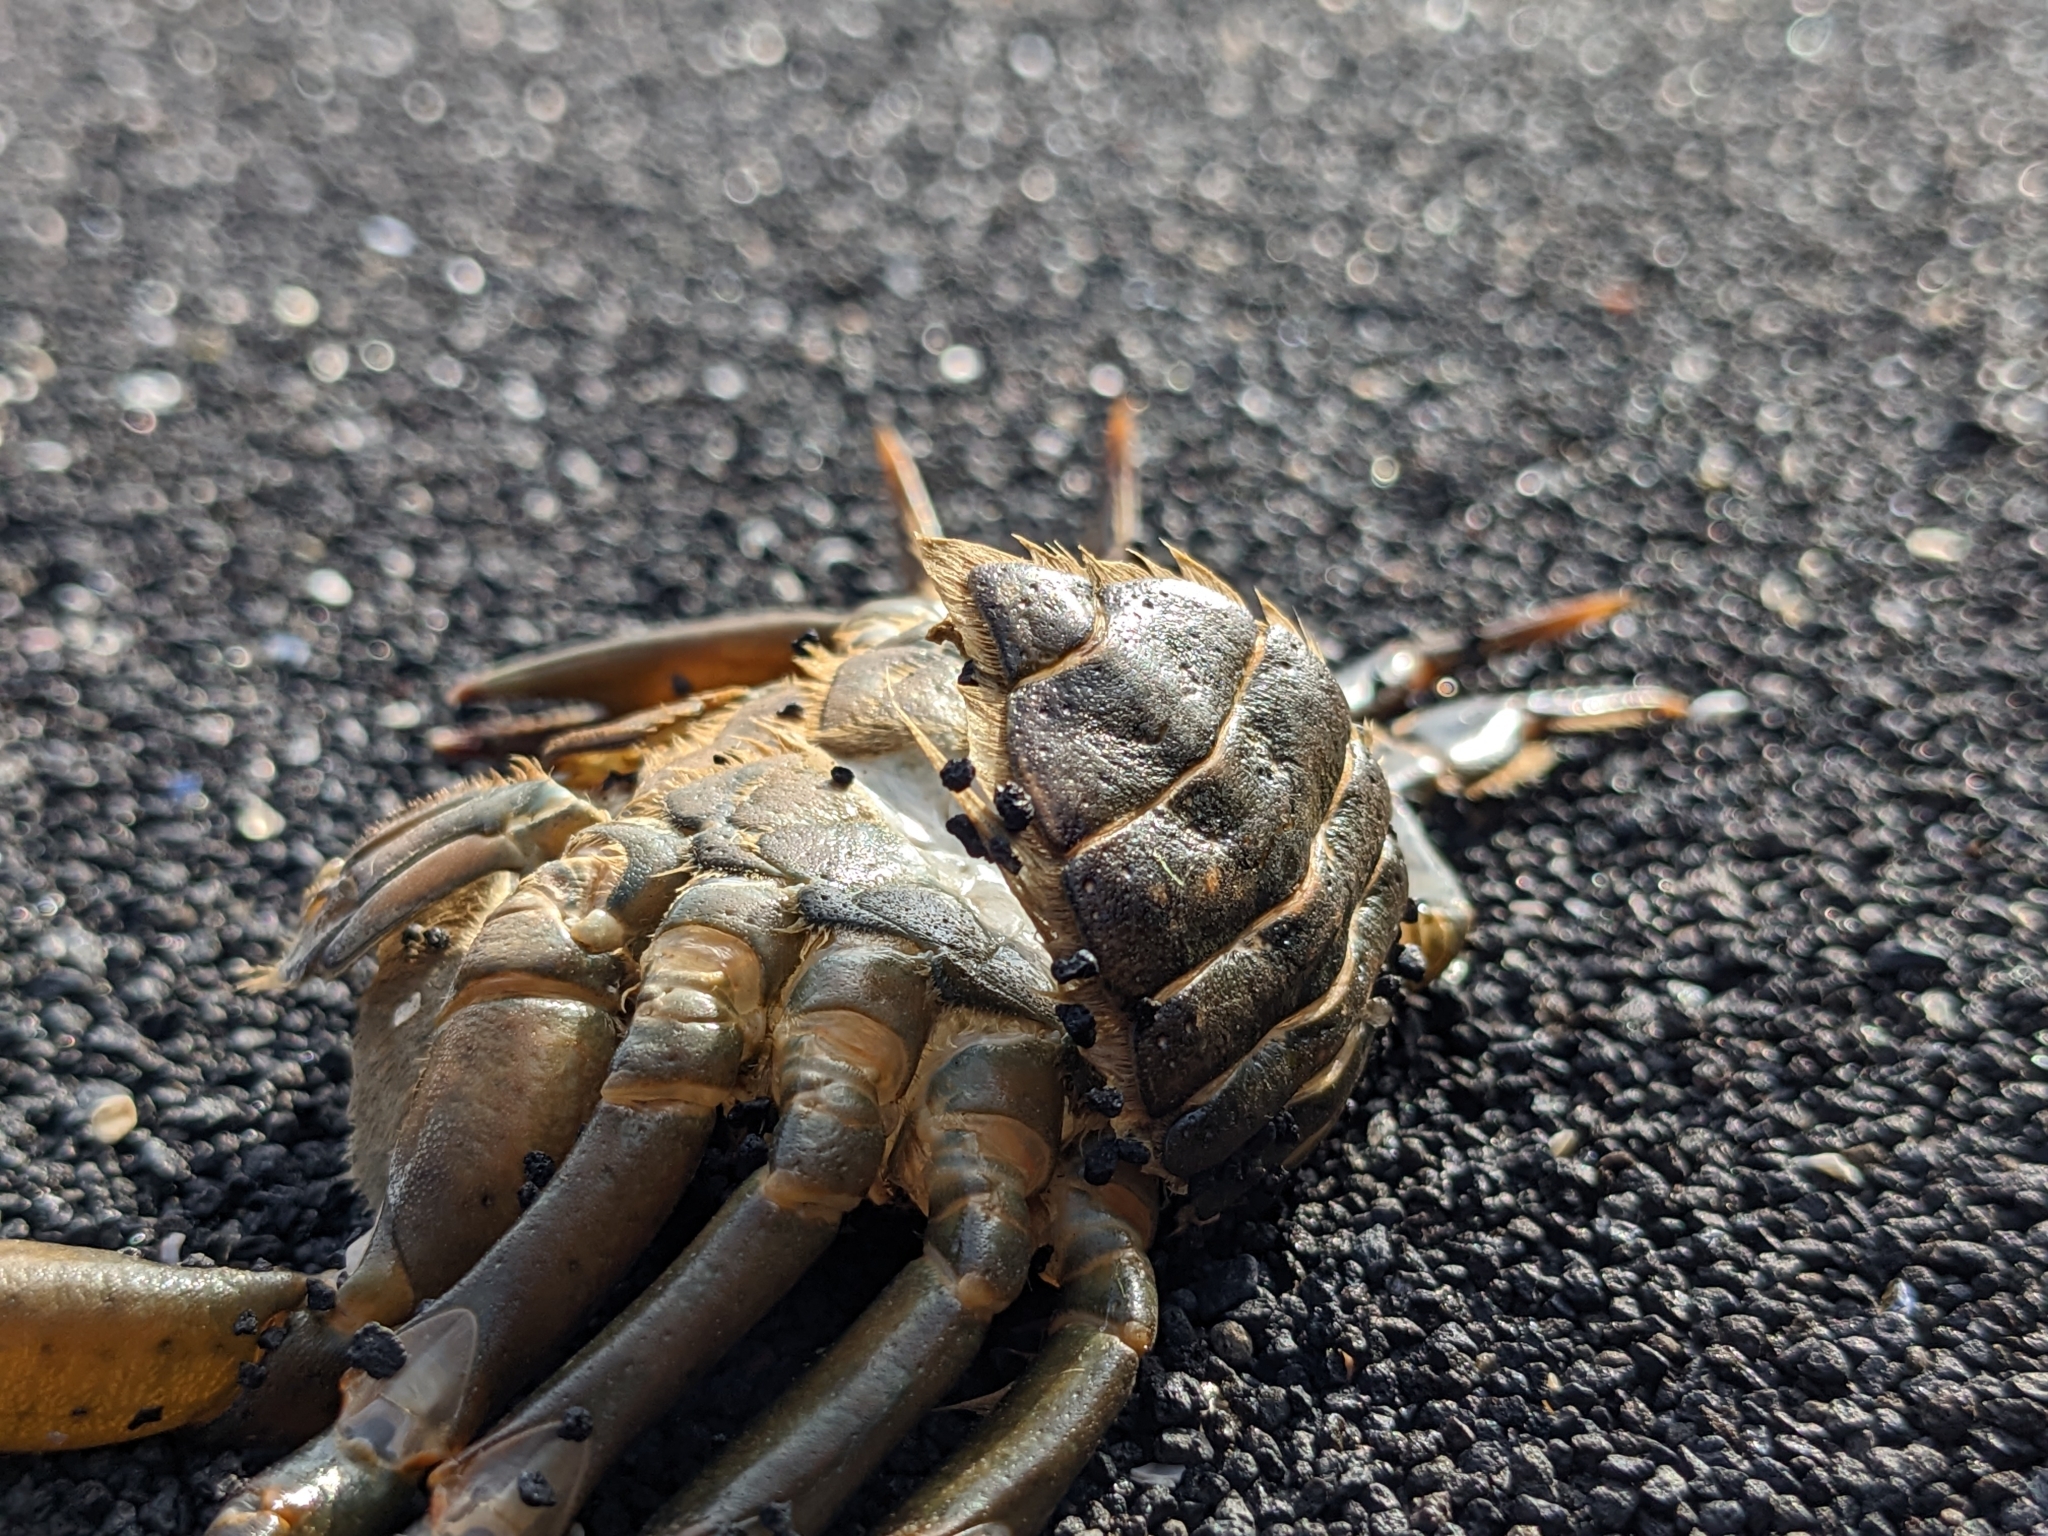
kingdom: Animalia
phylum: Arthropoda
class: Malacostraca
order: Decapoda
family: Carcinidae
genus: Carcinus
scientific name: Carcinus maenas
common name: European green crab
